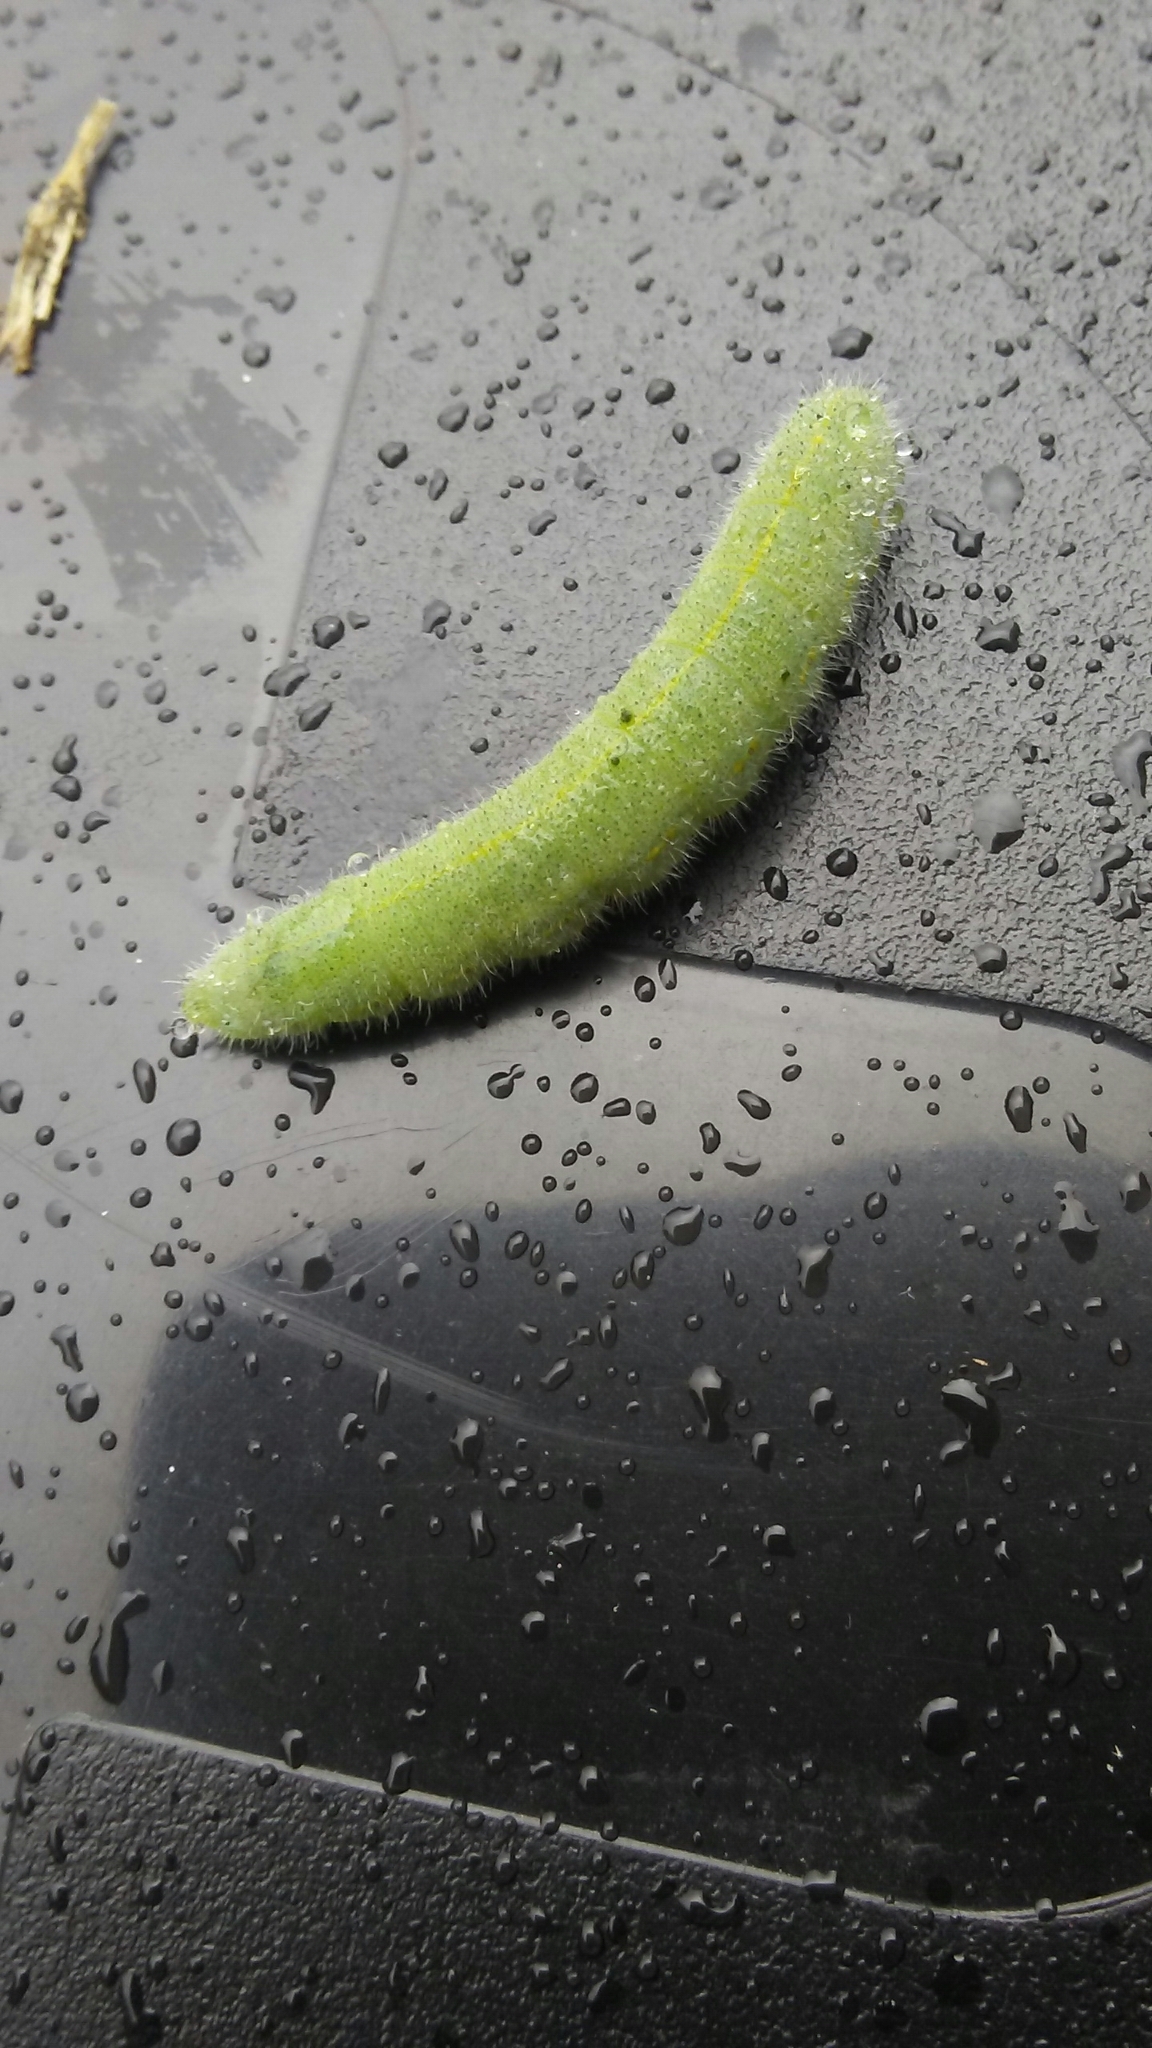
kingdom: Animalia
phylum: Arthropoda
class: Insecta
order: Lepidoptera
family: Pieridae
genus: Pieris
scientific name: Pieris rapae
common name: Small white
